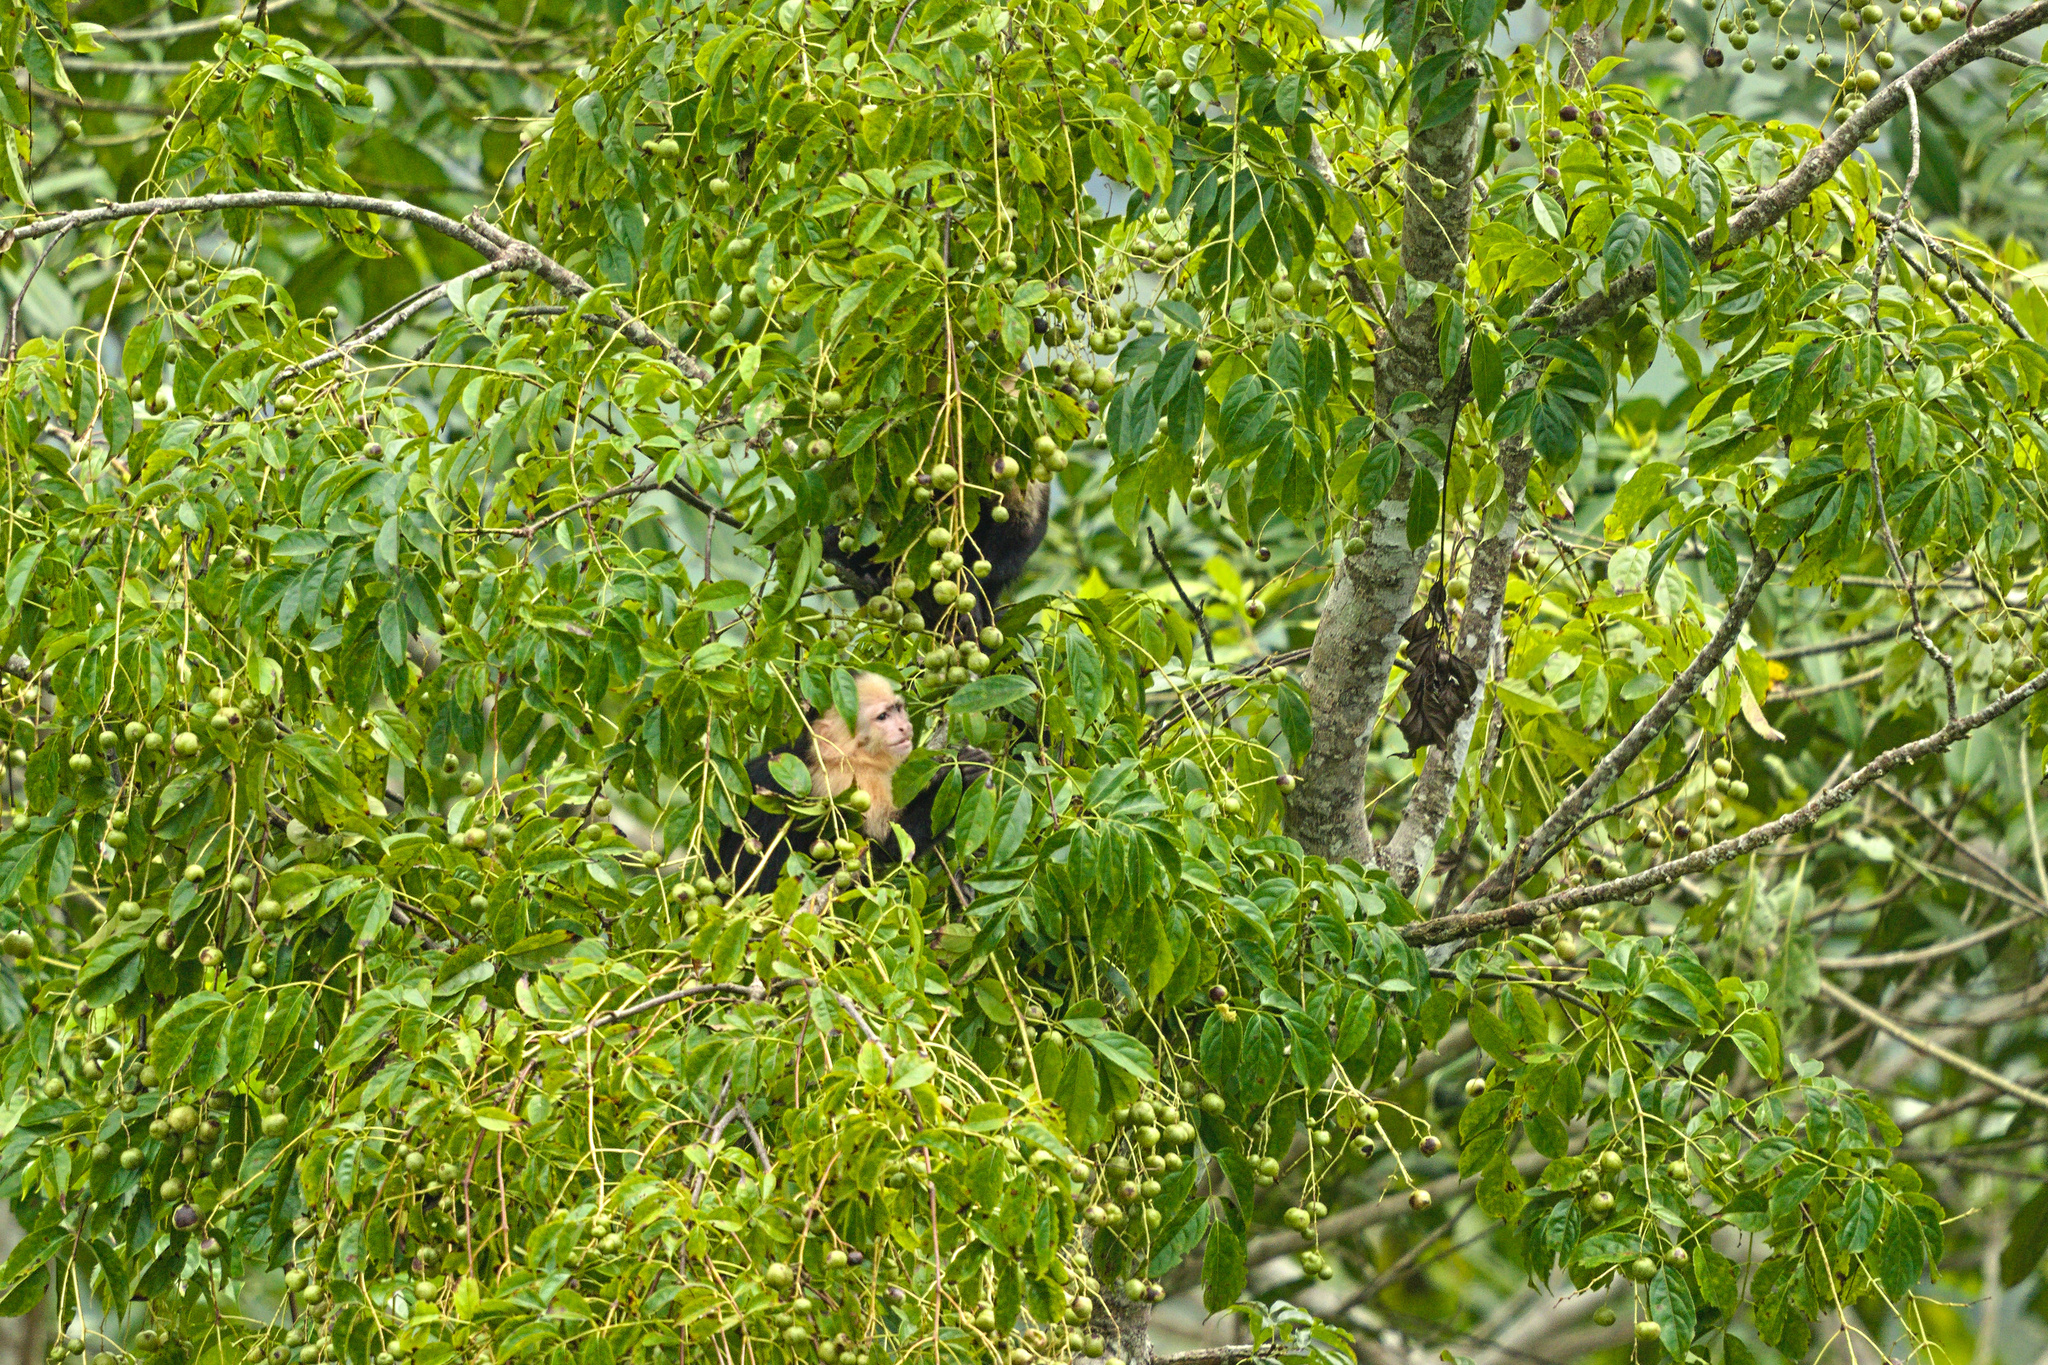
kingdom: Animalia
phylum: Chordata
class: Mammalia
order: Primates
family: Cebidae
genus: Cebus
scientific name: Cebus imitator
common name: Panamanian white-faced capuchin
